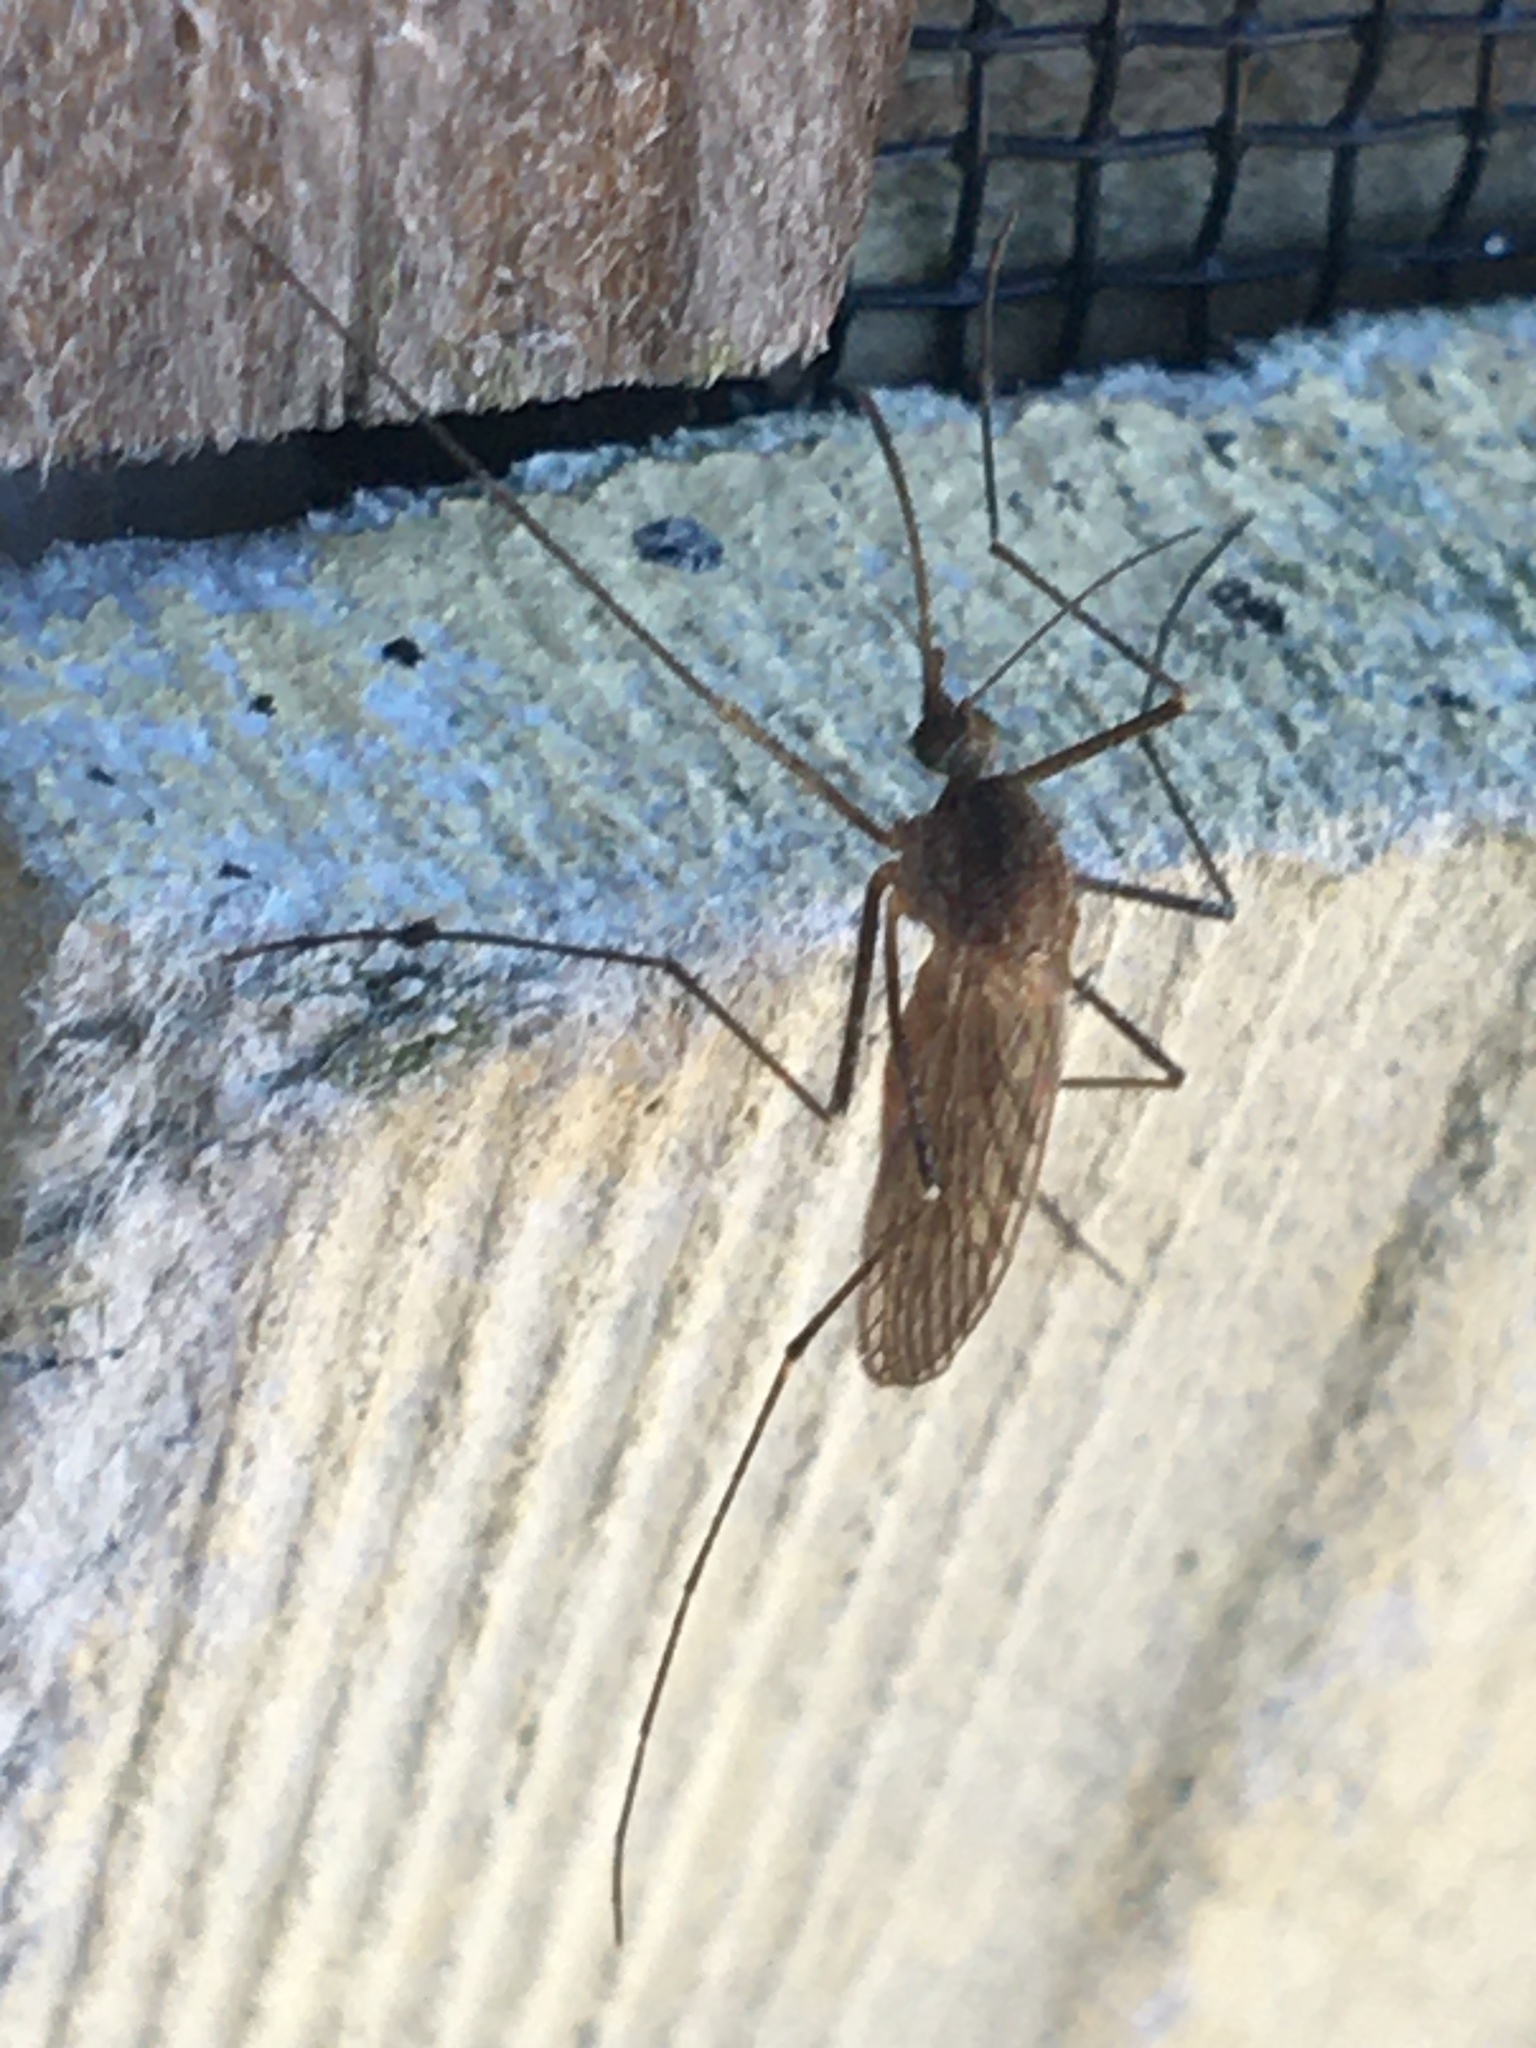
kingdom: Animalia
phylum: Arthropoda
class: Insecta
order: Diptera
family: Culicidae
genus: Culiseta
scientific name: Culiseta inornata
